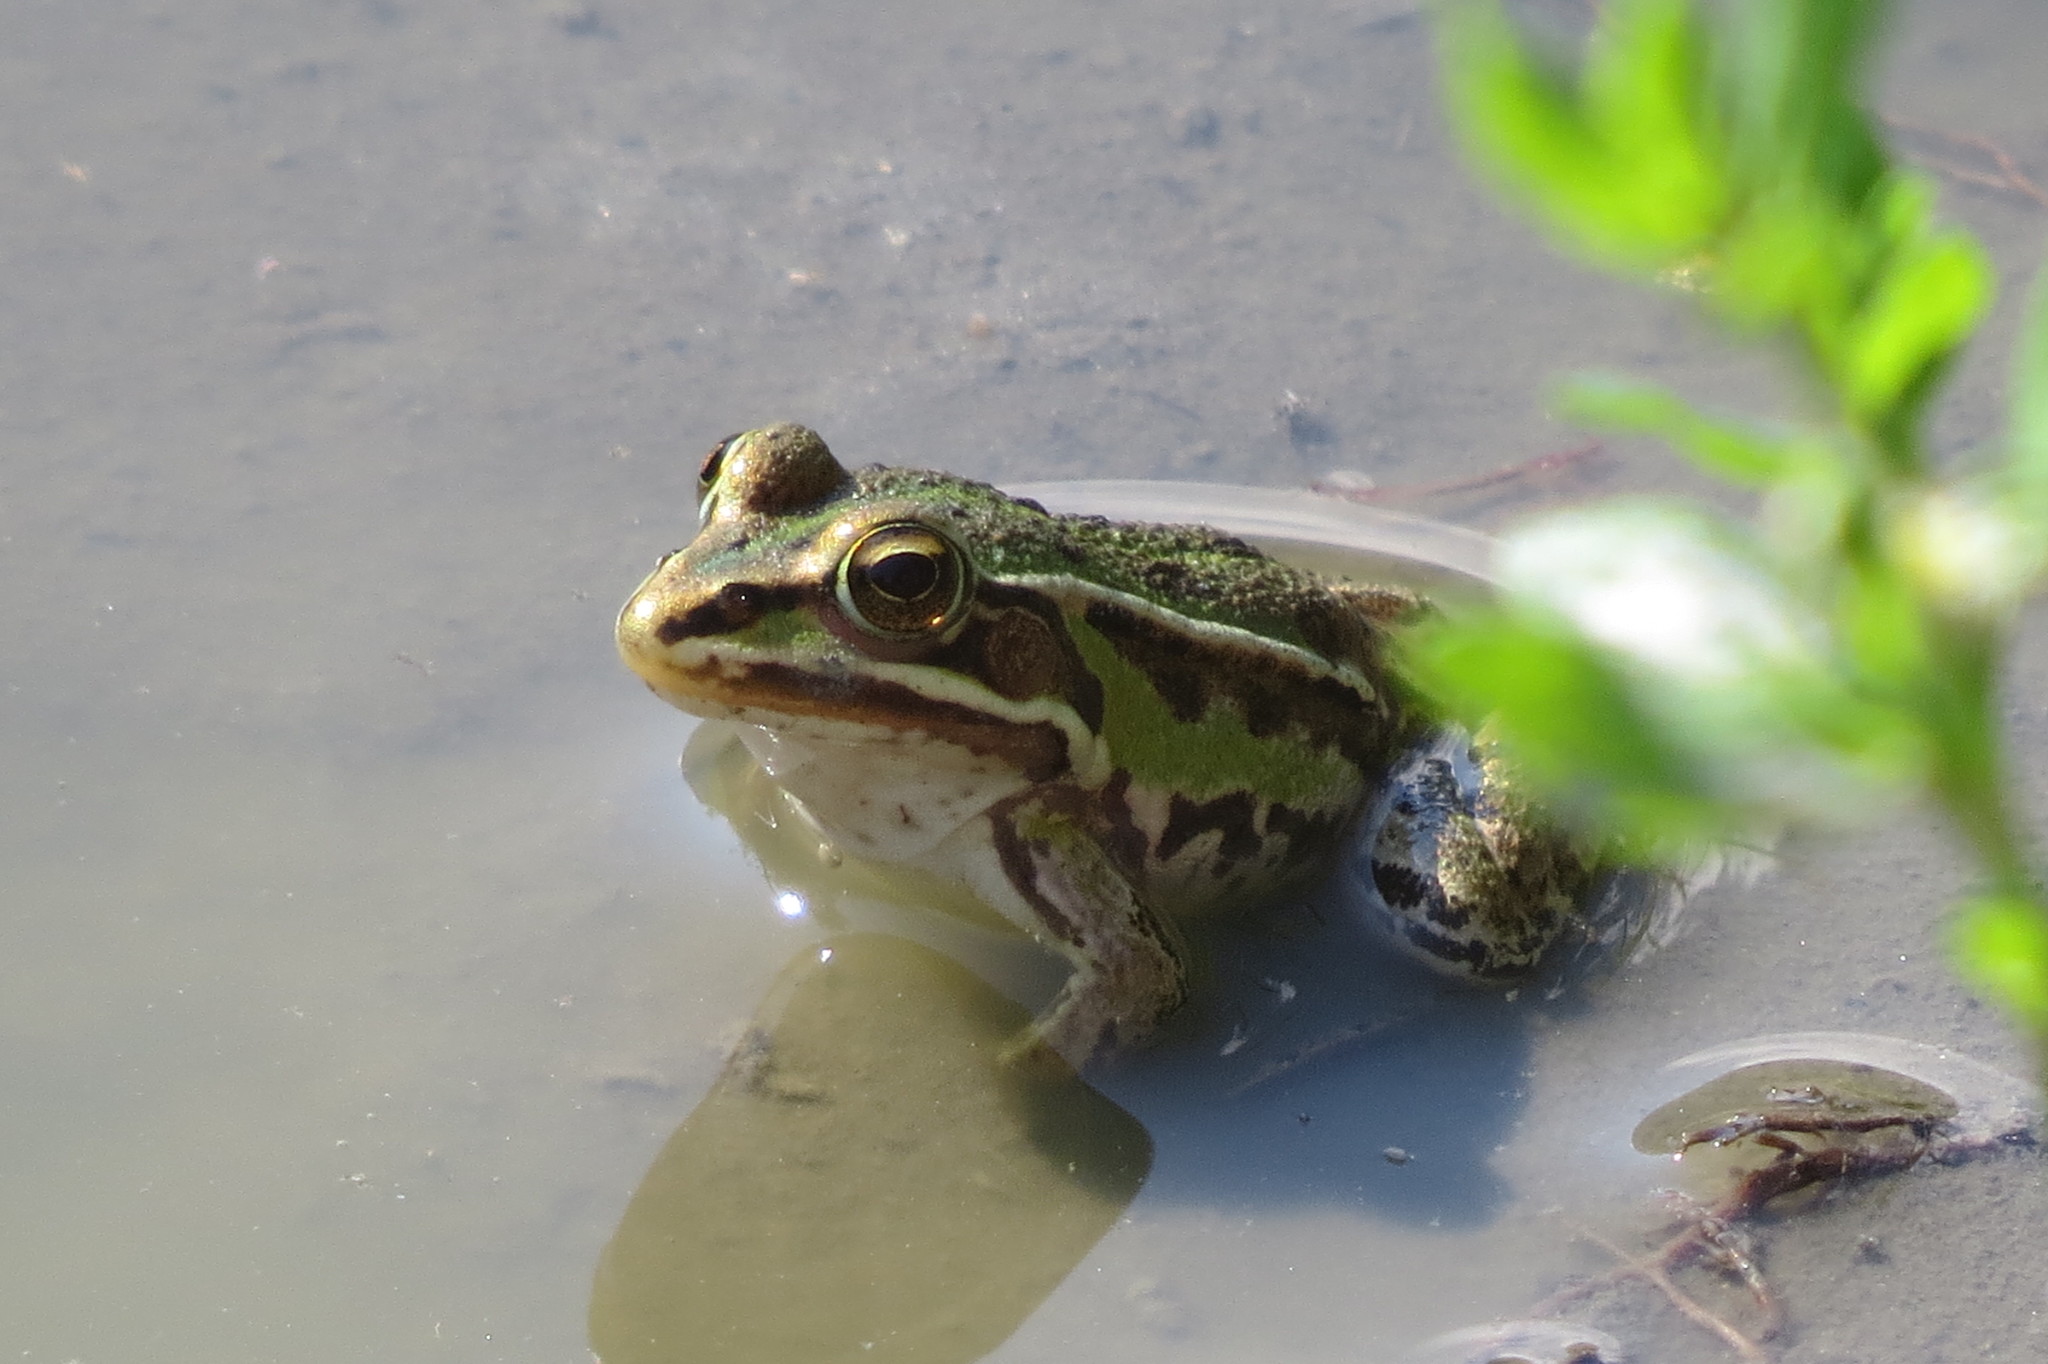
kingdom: Animalia
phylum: Chordata
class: Amphibia
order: Anura
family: Ranidae
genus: Pelophylax
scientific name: Pelophylax
